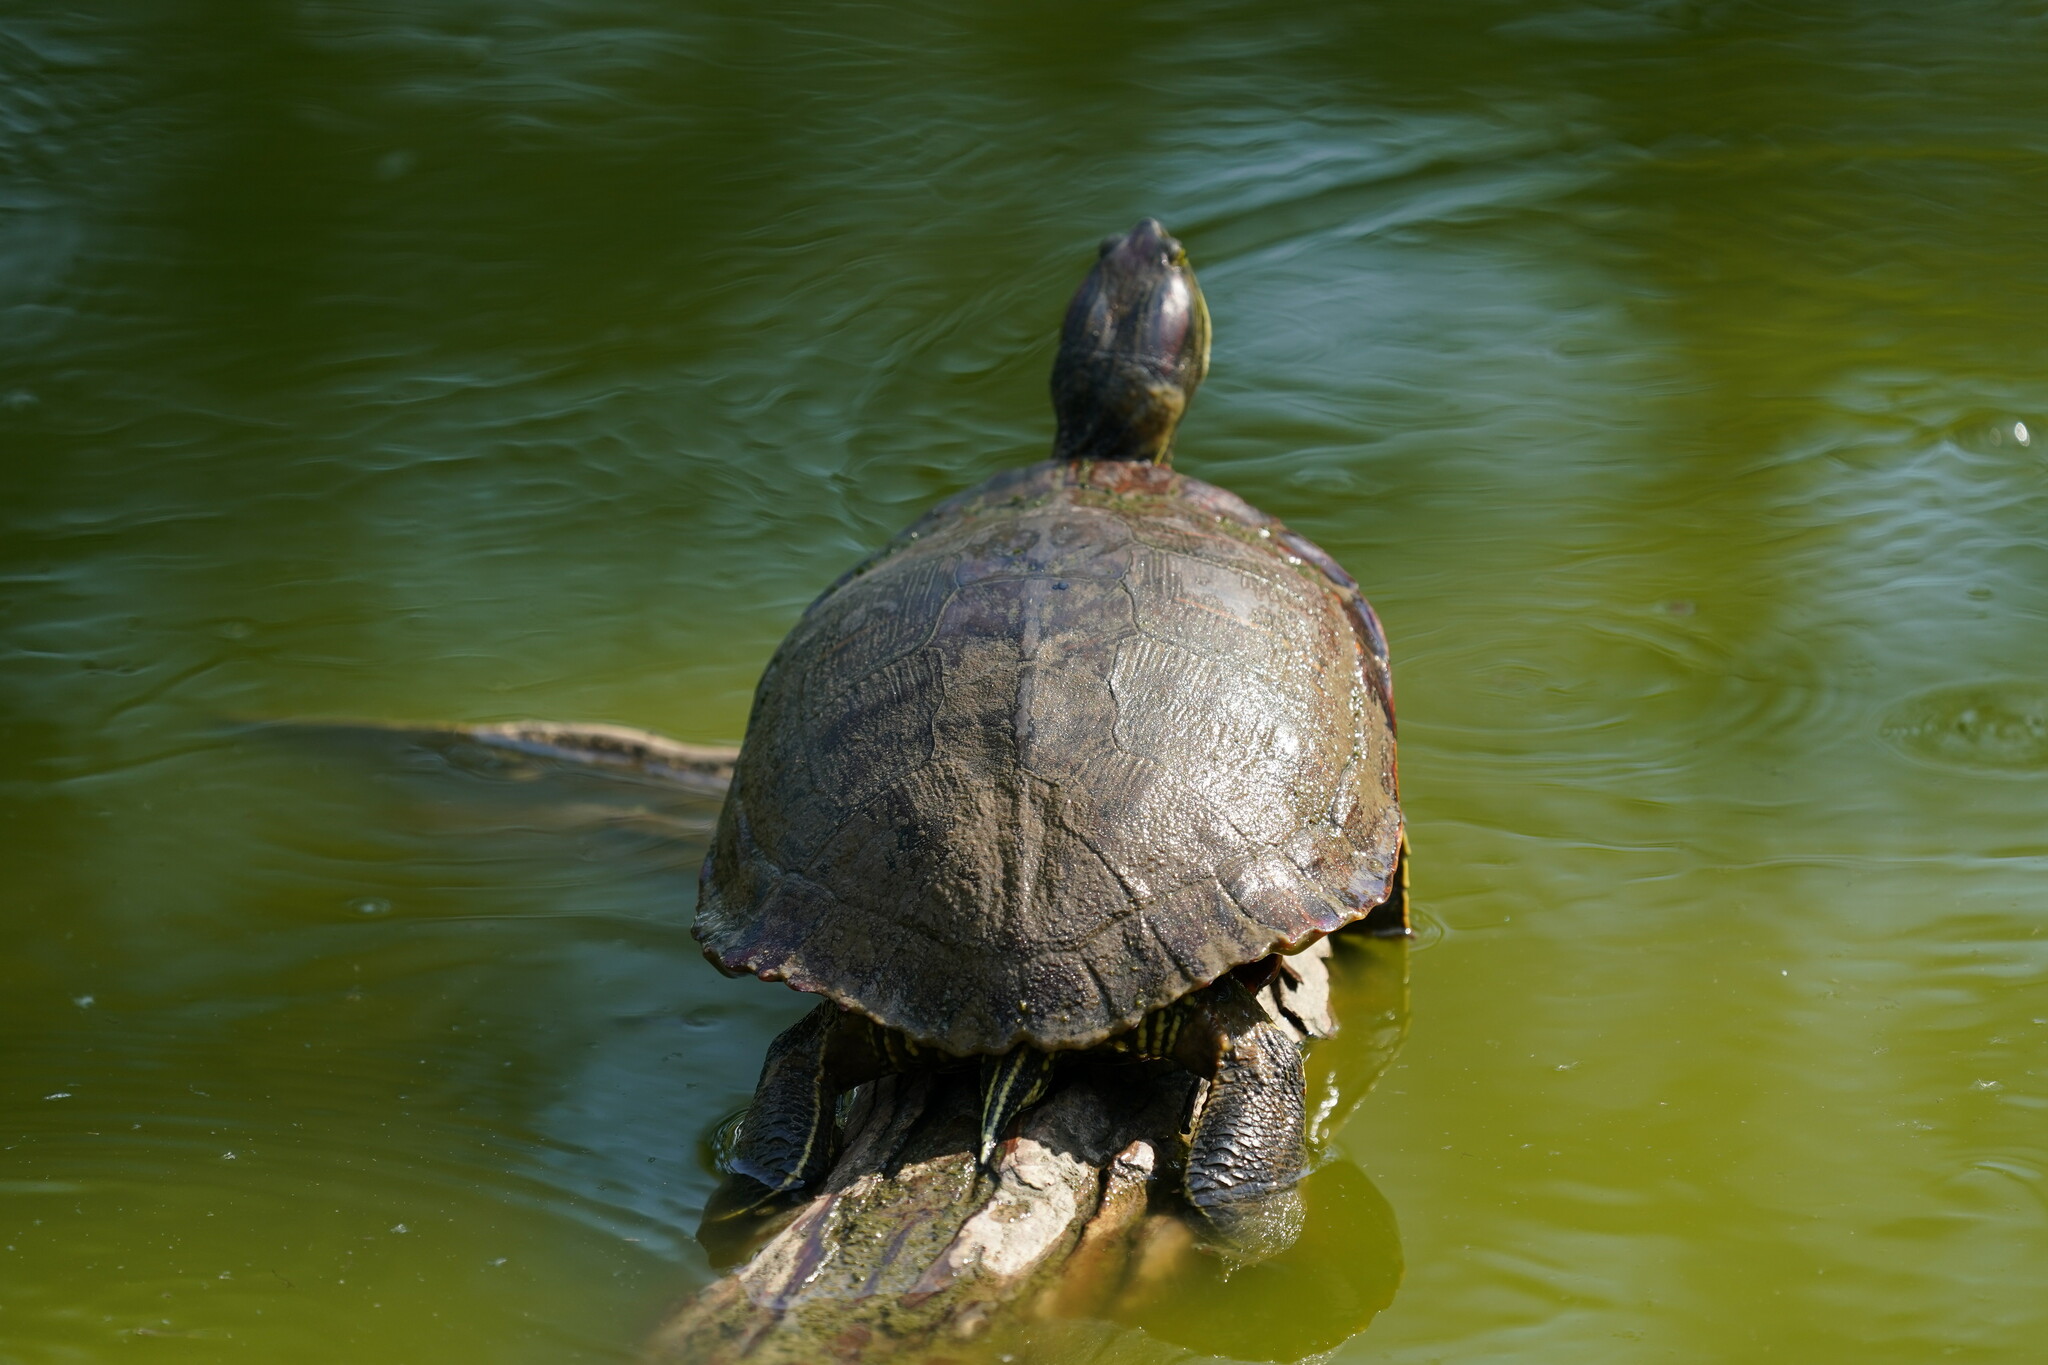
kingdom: Animalia
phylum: Chordata
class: Testudines
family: Emydidae
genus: Trachemys
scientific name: Trachemys scripta
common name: Slider
